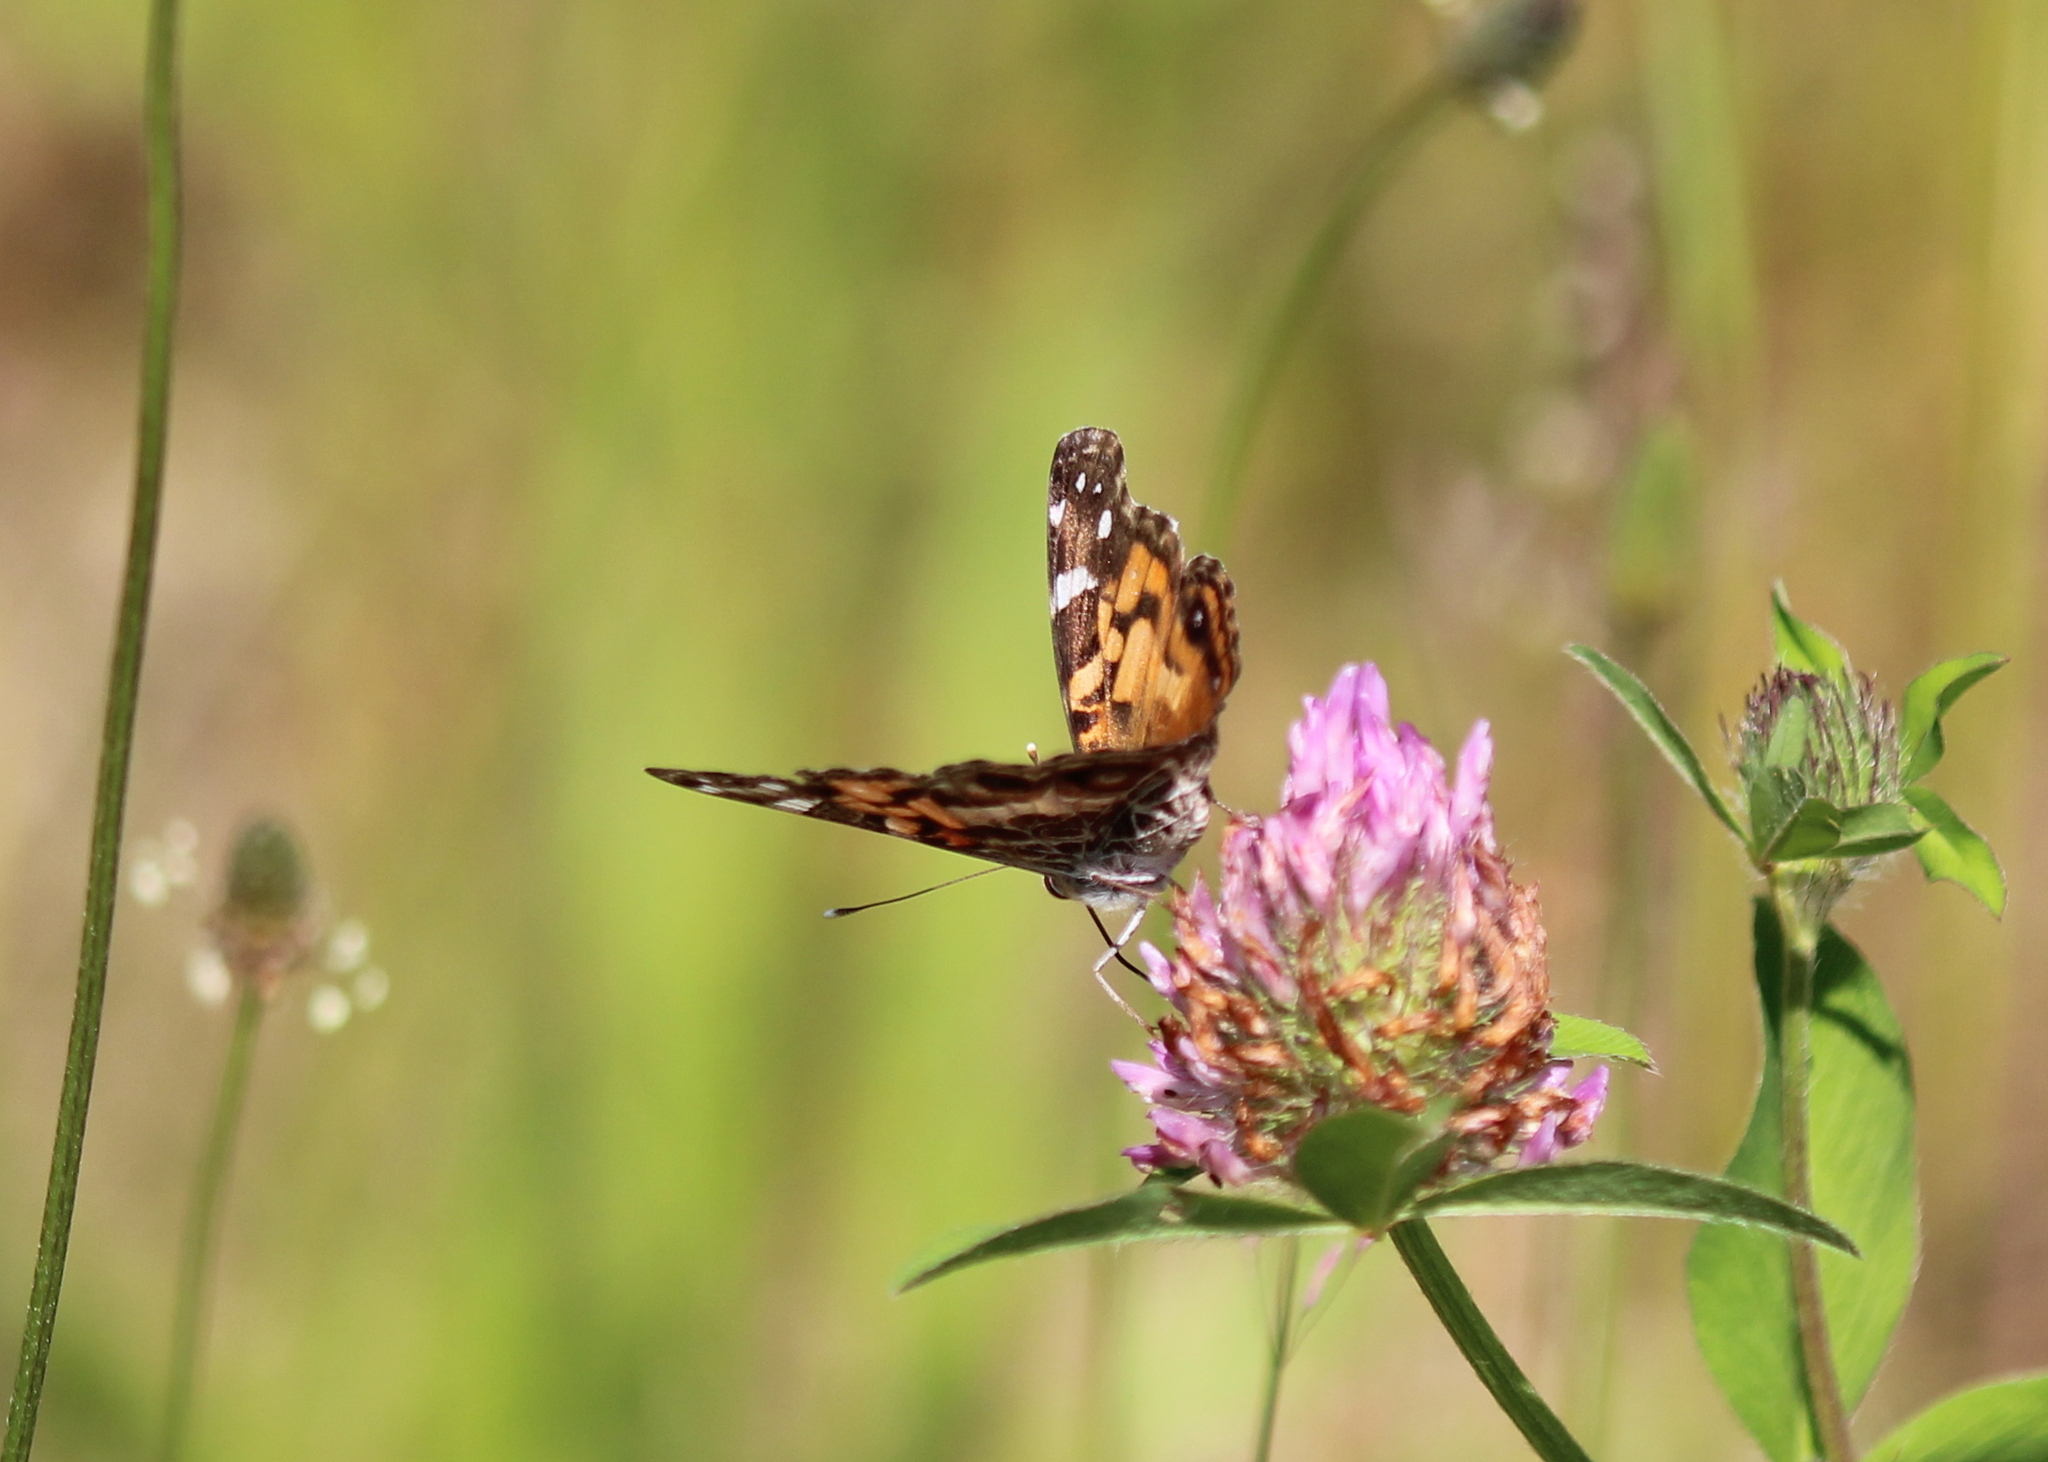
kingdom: Animalia
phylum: Arthropoda
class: Insecta
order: Lepidoptera
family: Nymphalidae
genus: Vanessa
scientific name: Vanessa virginiensis
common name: American lady
